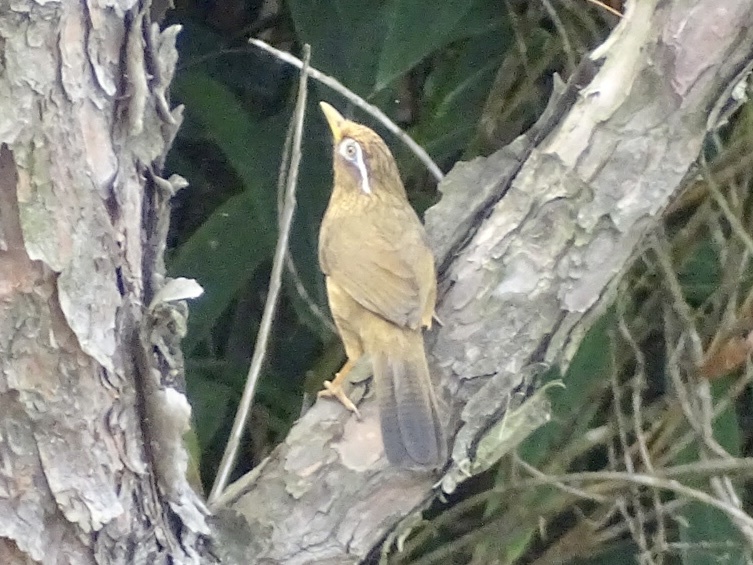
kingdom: Animalia
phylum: Chordata
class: Aves
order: Passeriformes
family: Leiothrichidae
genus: Garrulax
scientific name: Garrulax canorus
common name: Chinese hwamei
